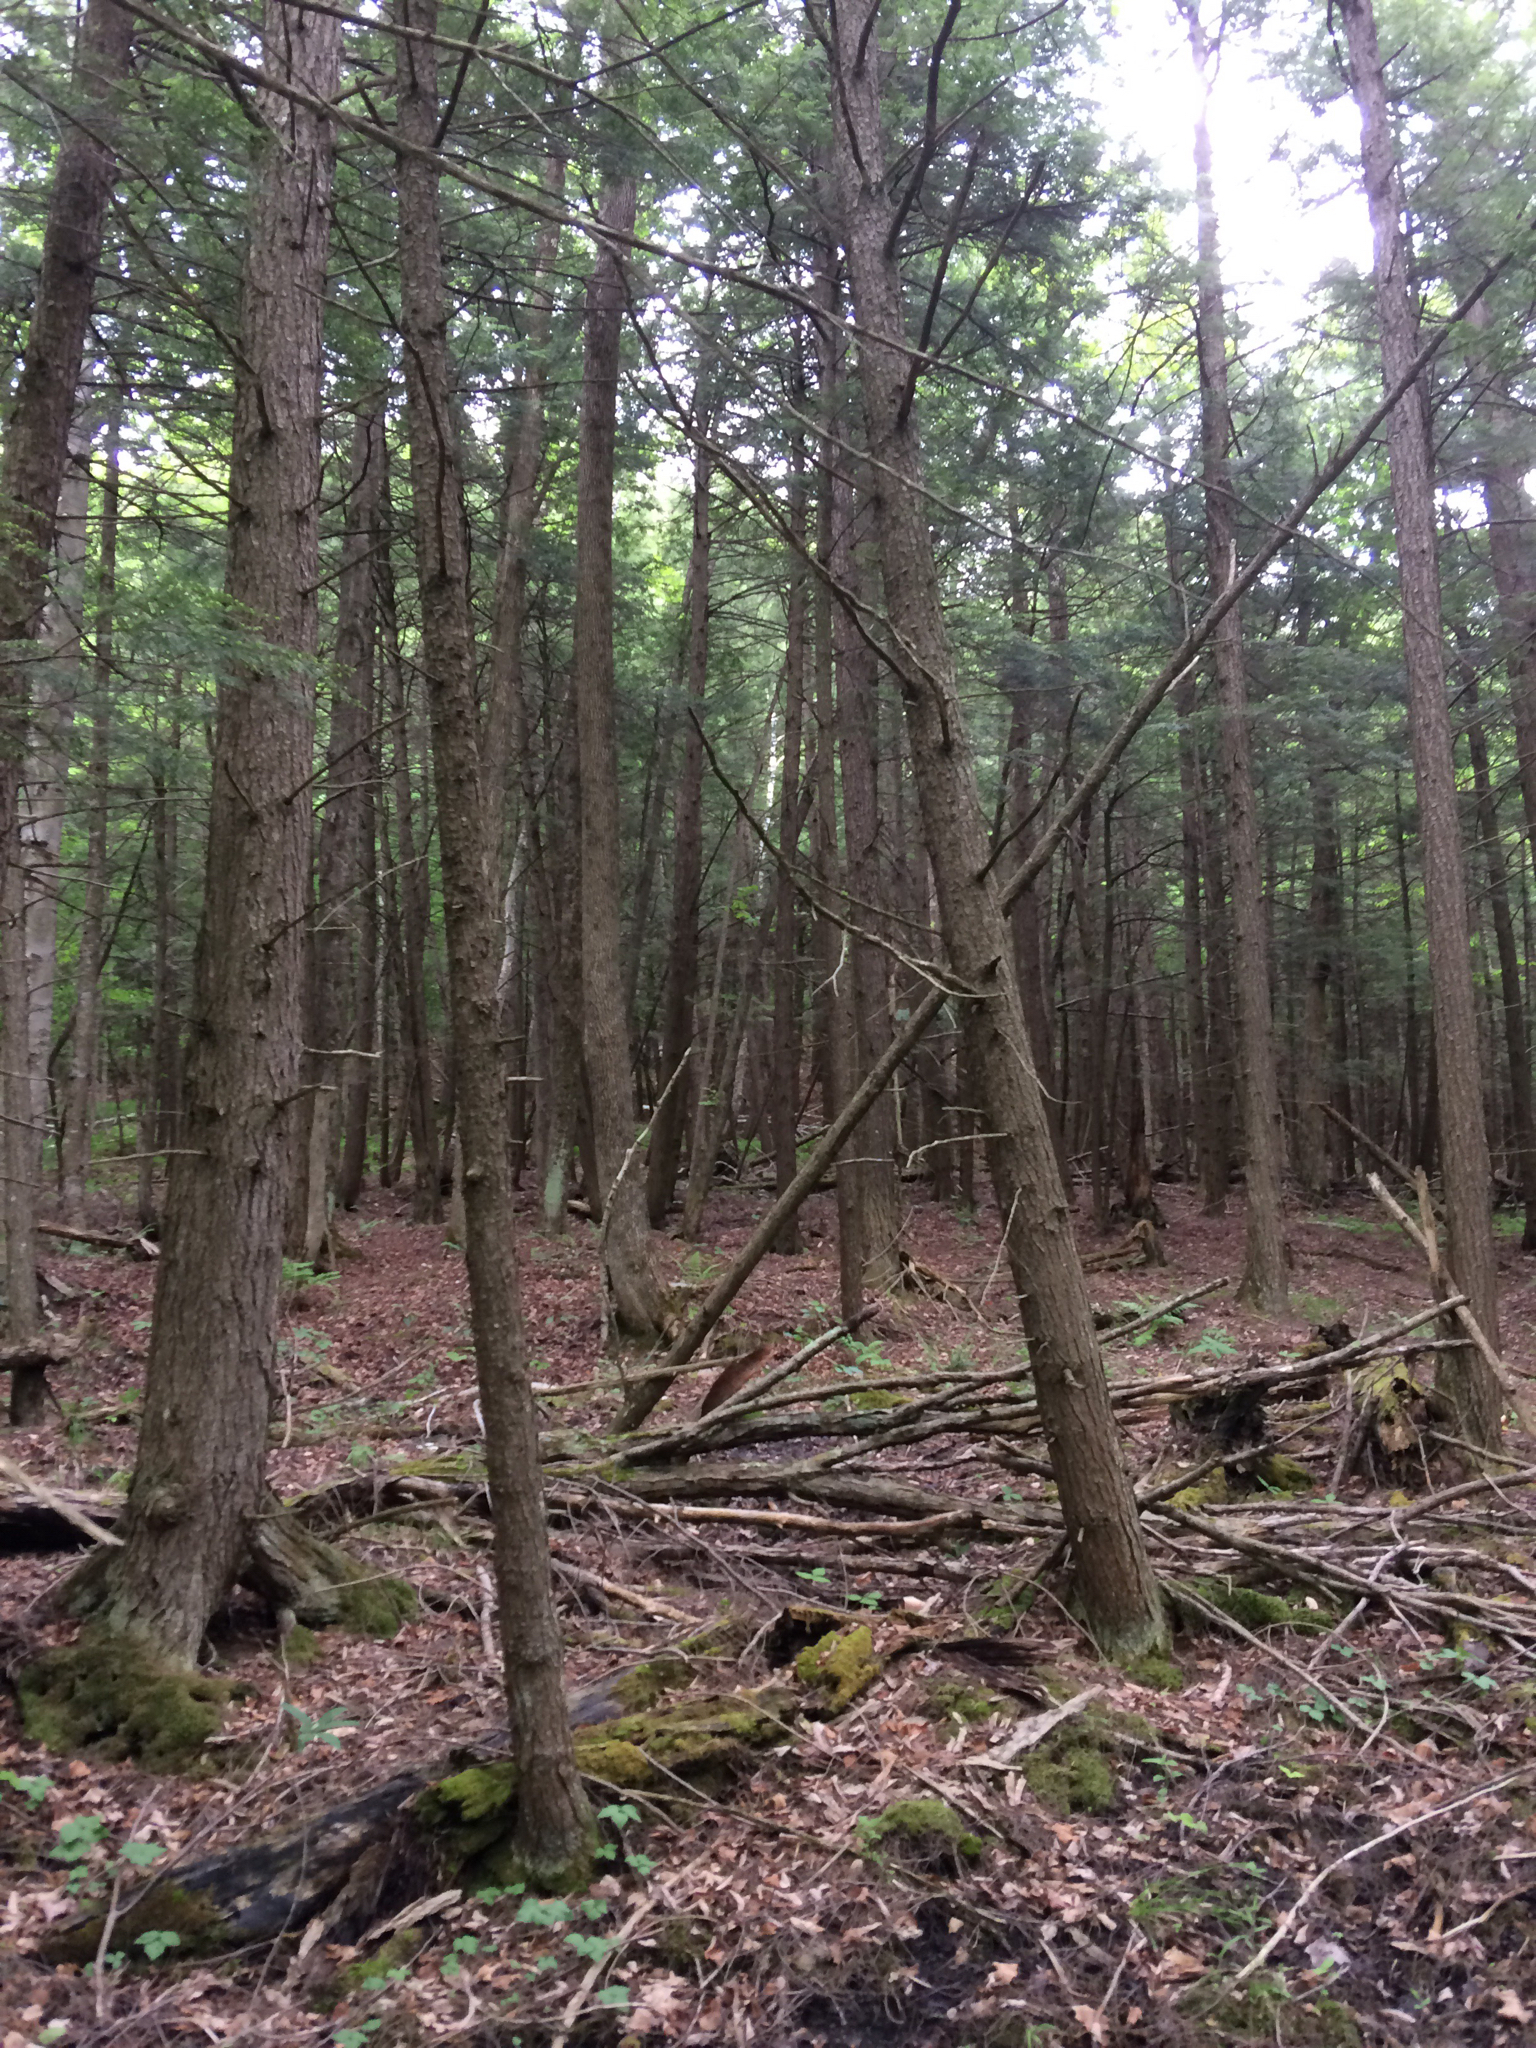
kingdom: Plantae
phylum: Tracheophyta
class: Pinopsida
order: Pinales
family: Pinaceae
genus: Tsuga
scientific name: Tsuga canadensis
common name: Eastern hemlock
